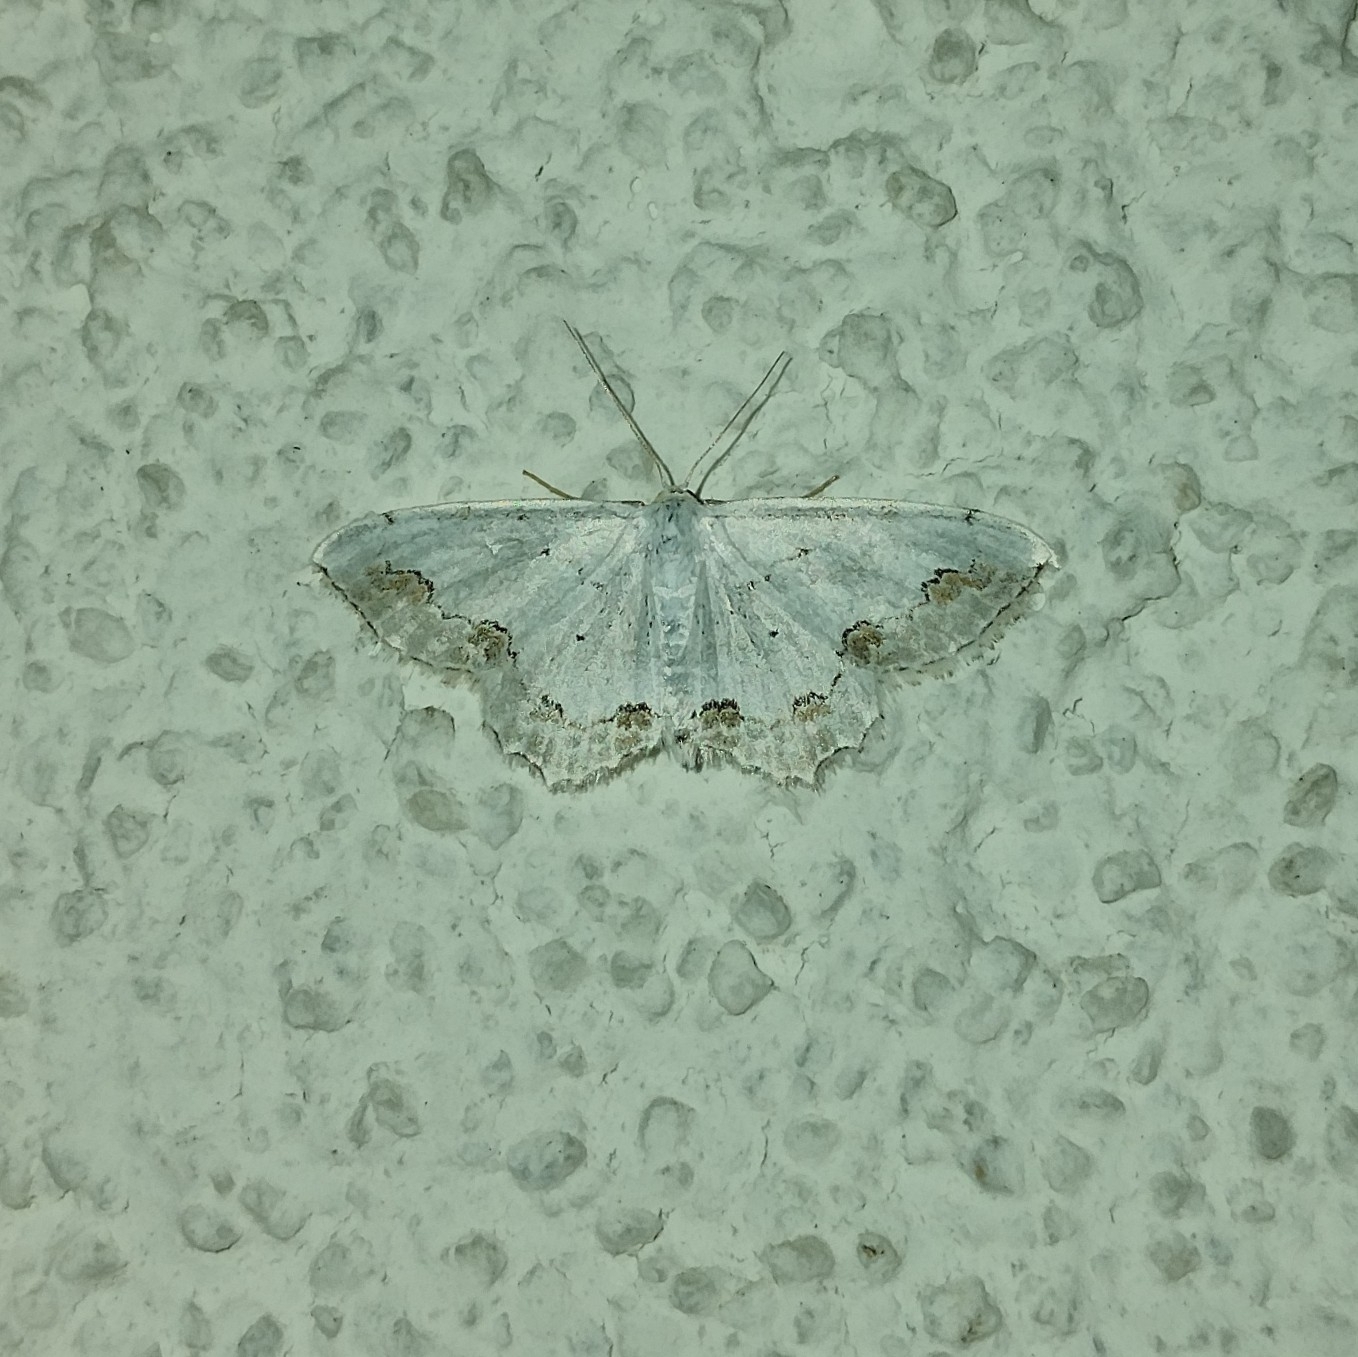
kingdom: Animalia
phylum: Arthropoda
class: Insecta
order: Lepidoptera
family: Geometridae
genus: Scopula
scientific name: Scopula ornata
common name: Lace border
